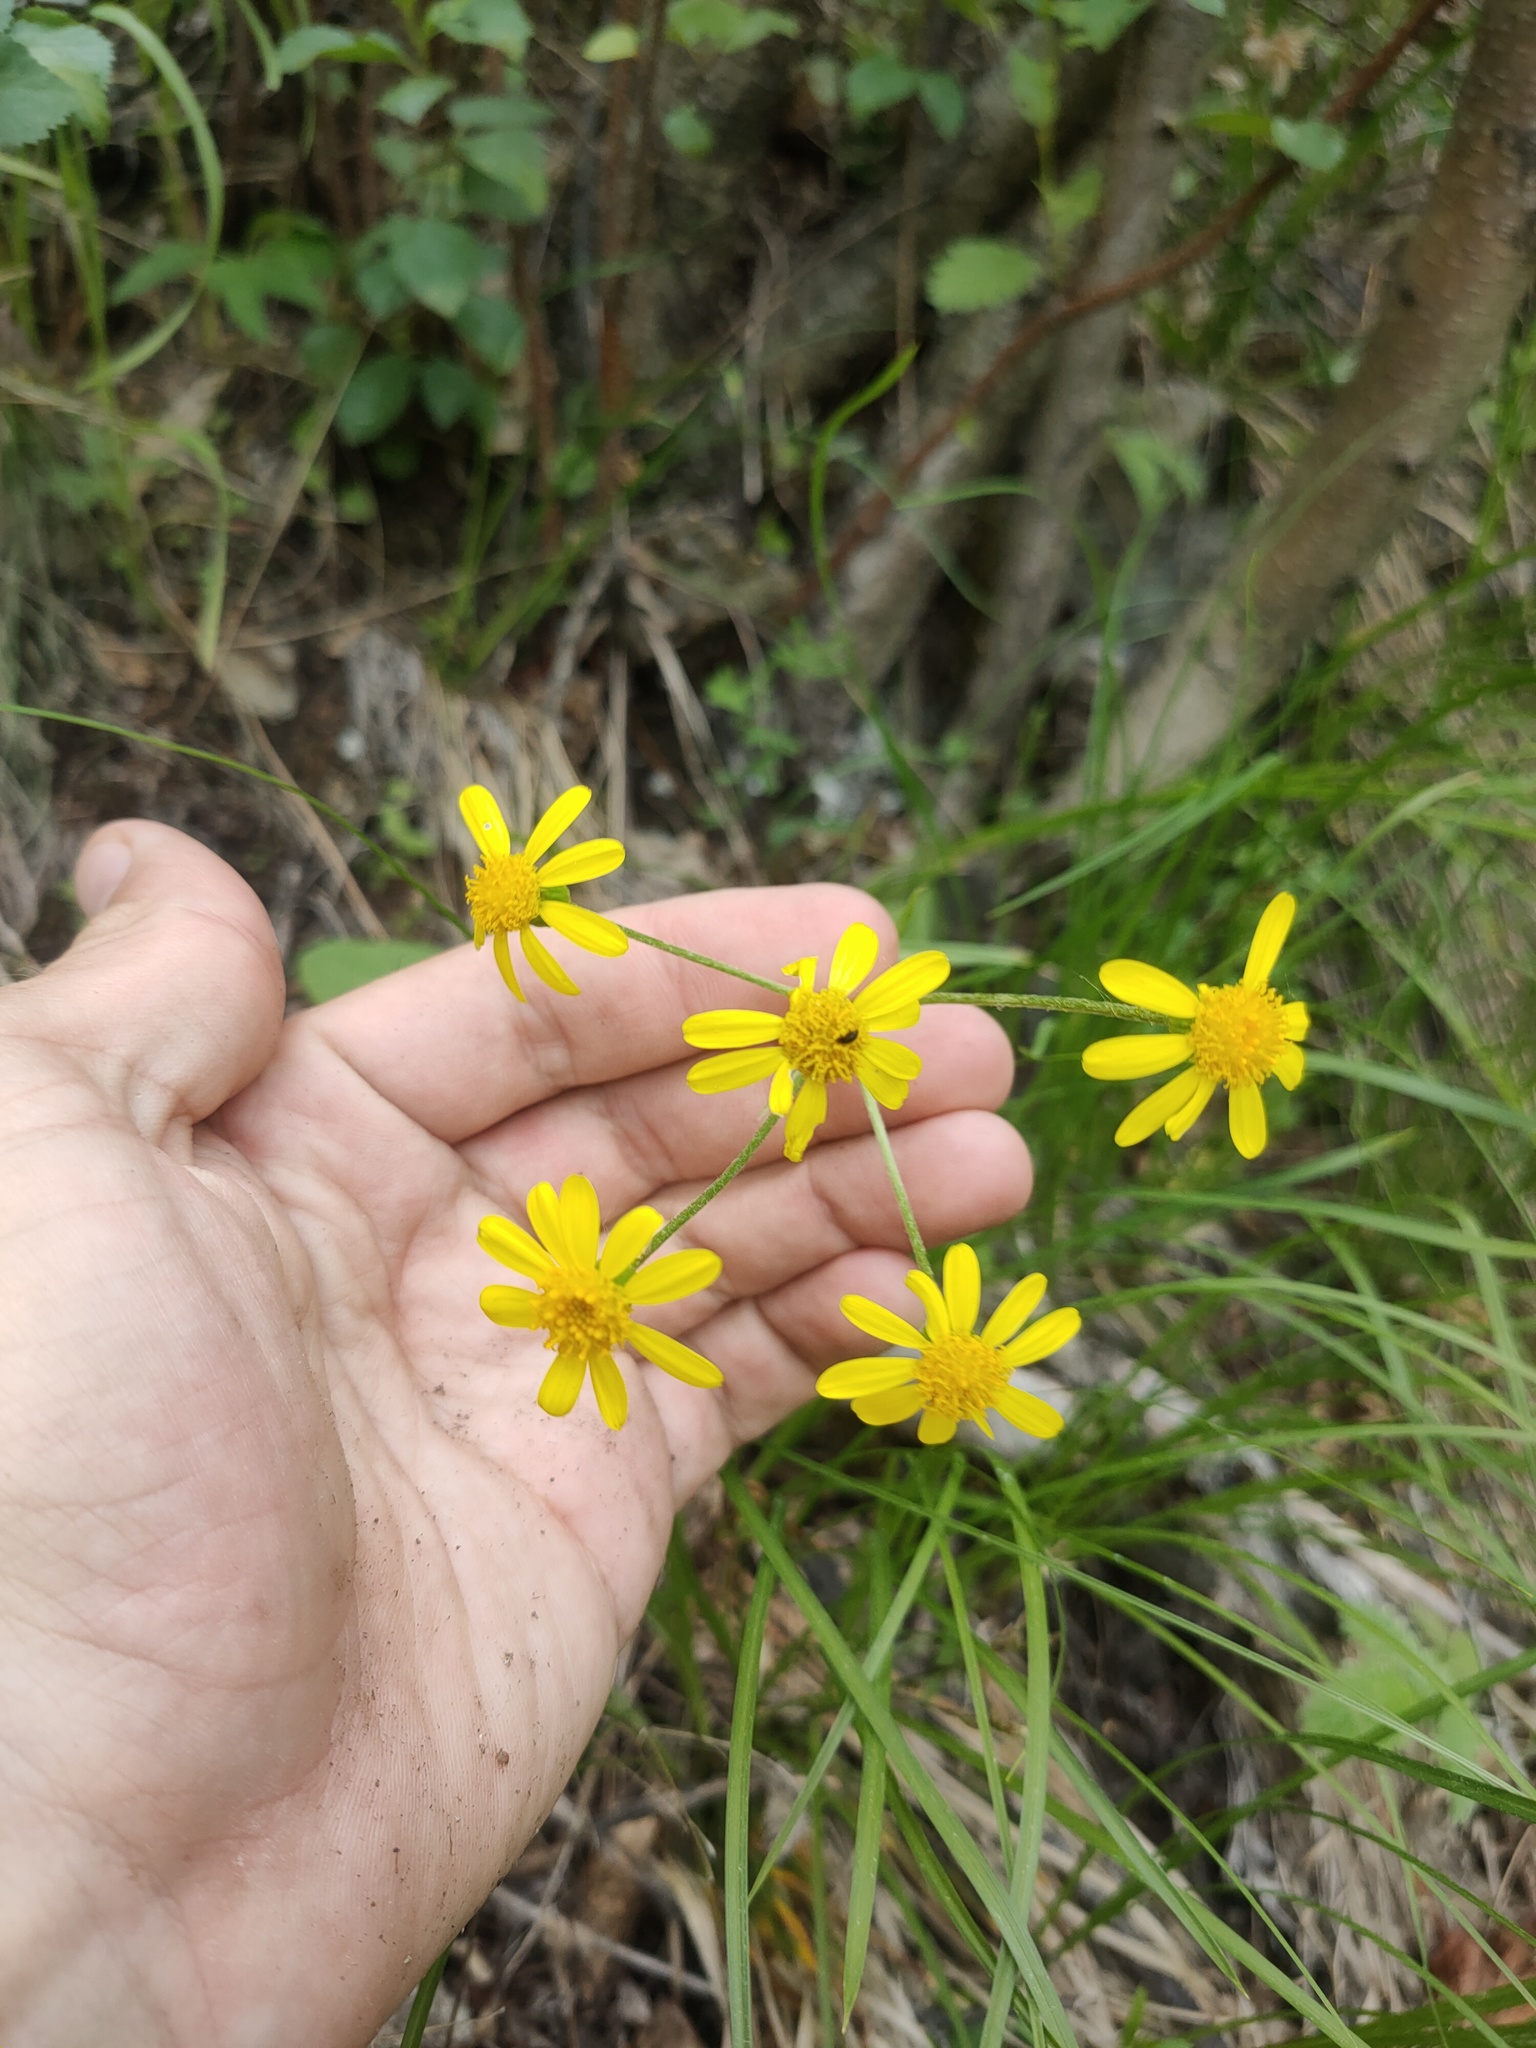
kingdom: Plantae
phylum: Tracheophyta
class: Magnoliopsida
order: Asterales
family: Asteraceae
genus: Tephroseris
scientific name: Tephroseris integrifolia
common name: Field fleawort
